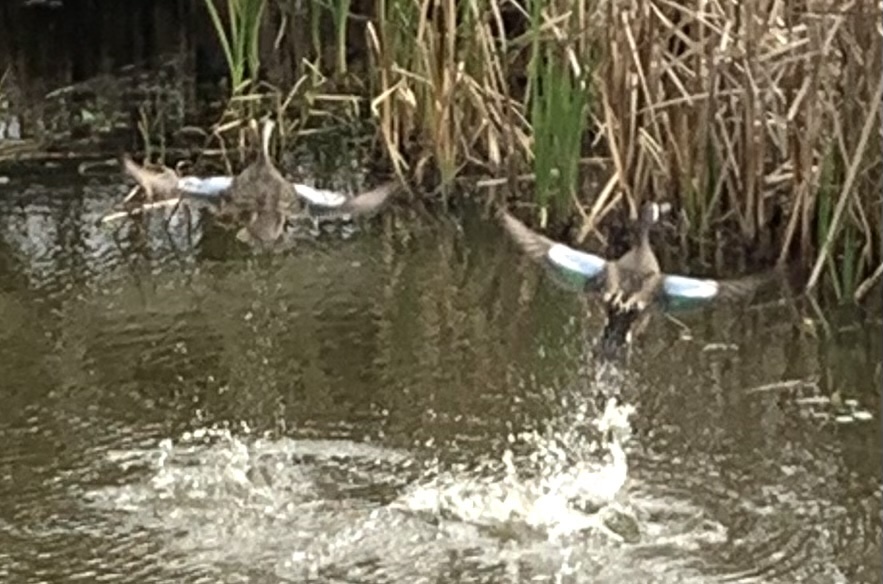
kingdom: Animalia
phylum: Chordata
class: Aves
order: Anseriformes
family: Anatidae
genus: Spatula
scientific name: Spatula discors
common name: Blue-winged teal
